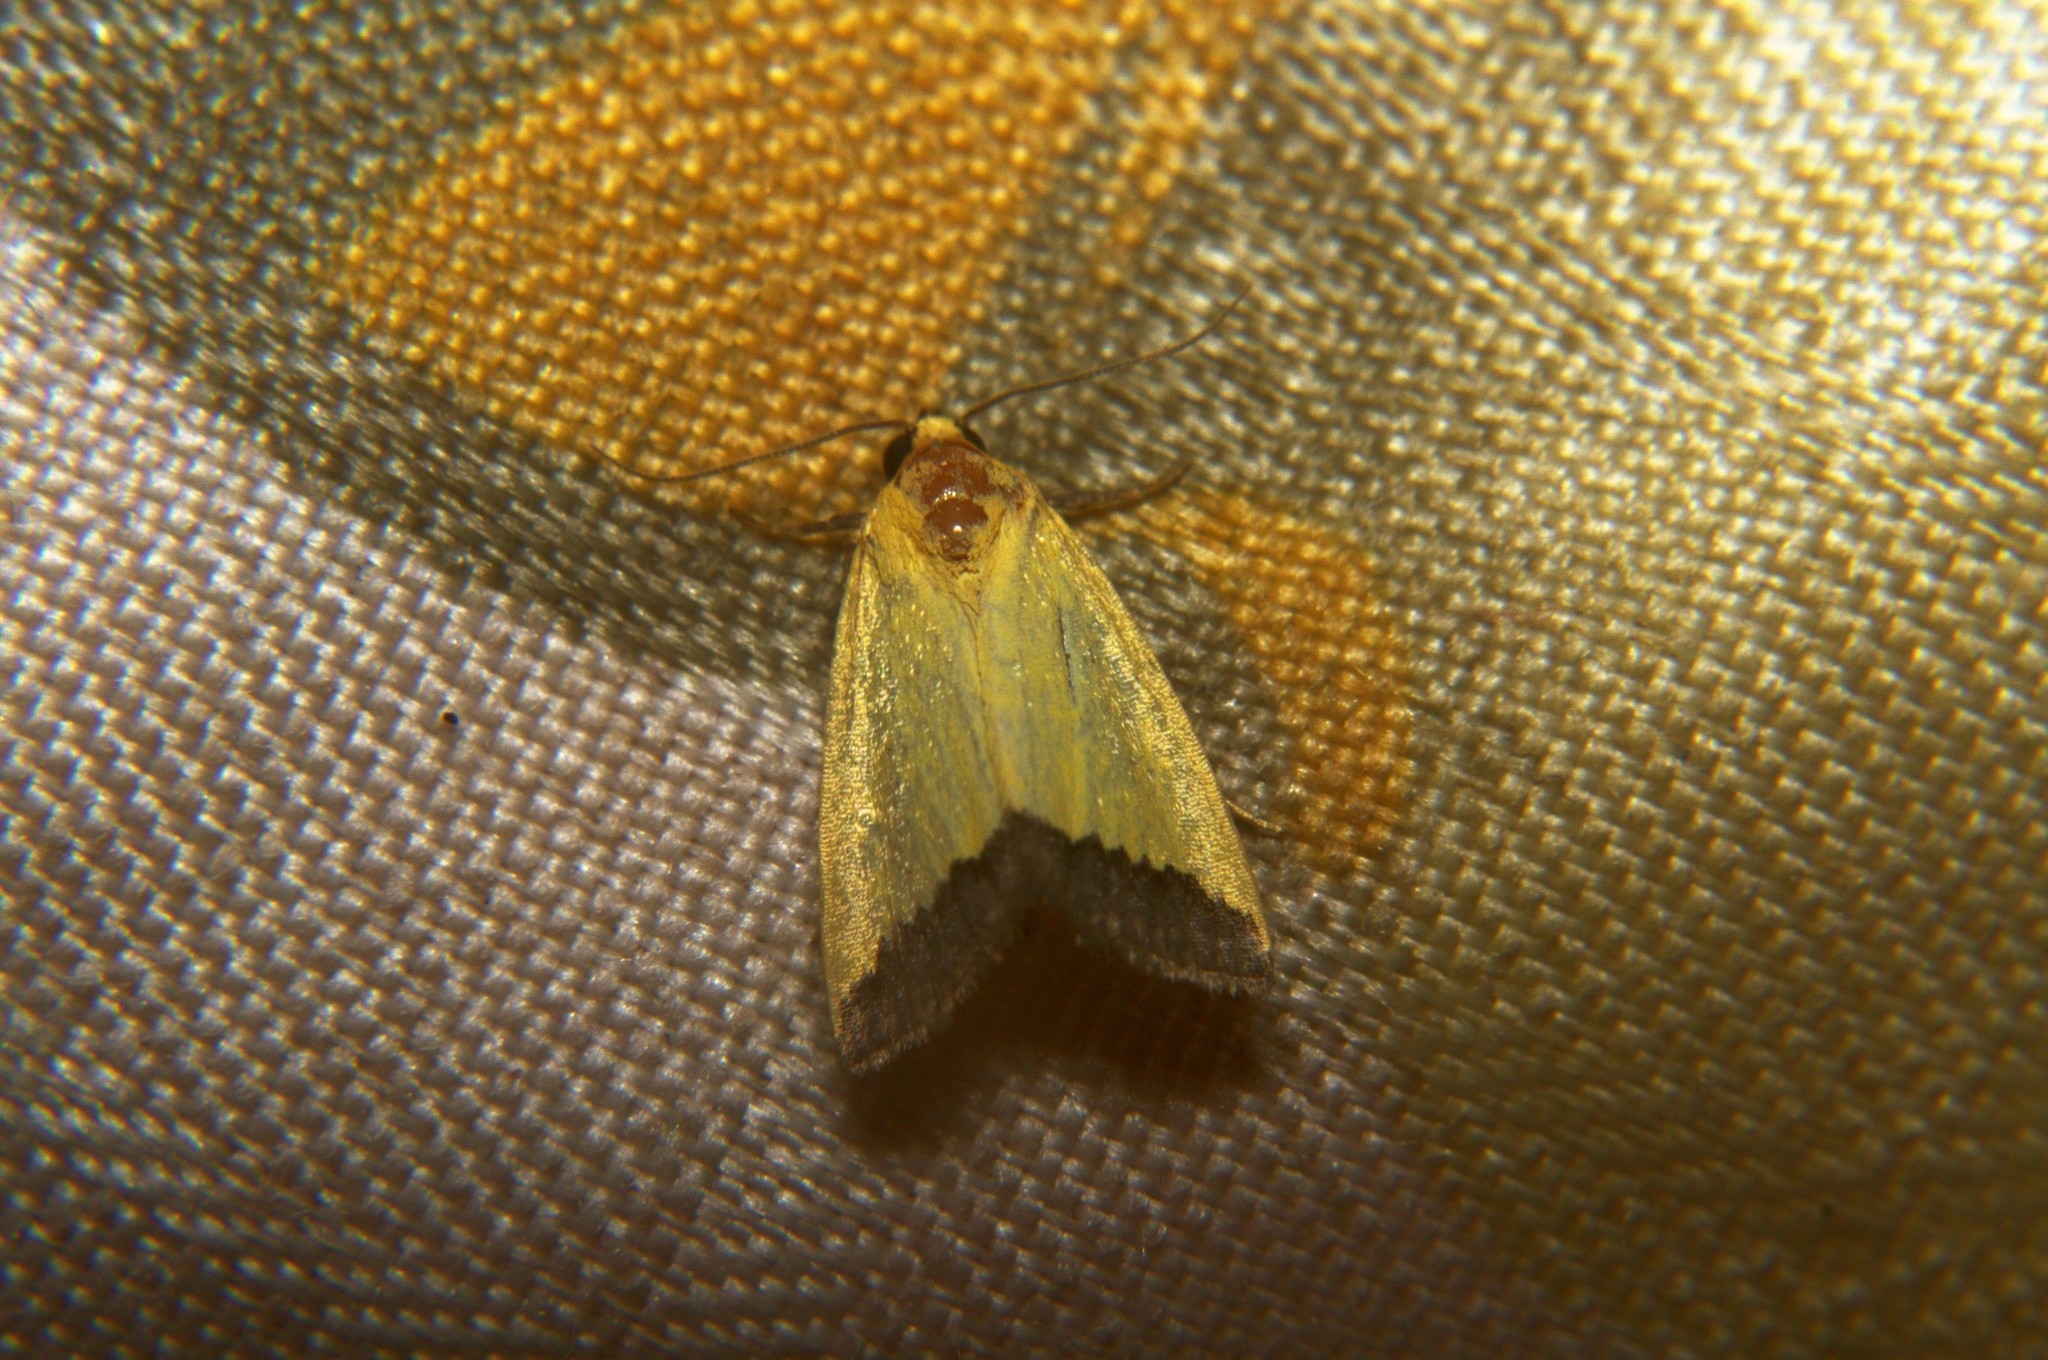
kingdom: Animalia
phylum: Arthropoda
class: Insecta
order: Lepidoptera
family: Noctuidae
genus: Eustrotia
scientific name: Eustrotia marginata
